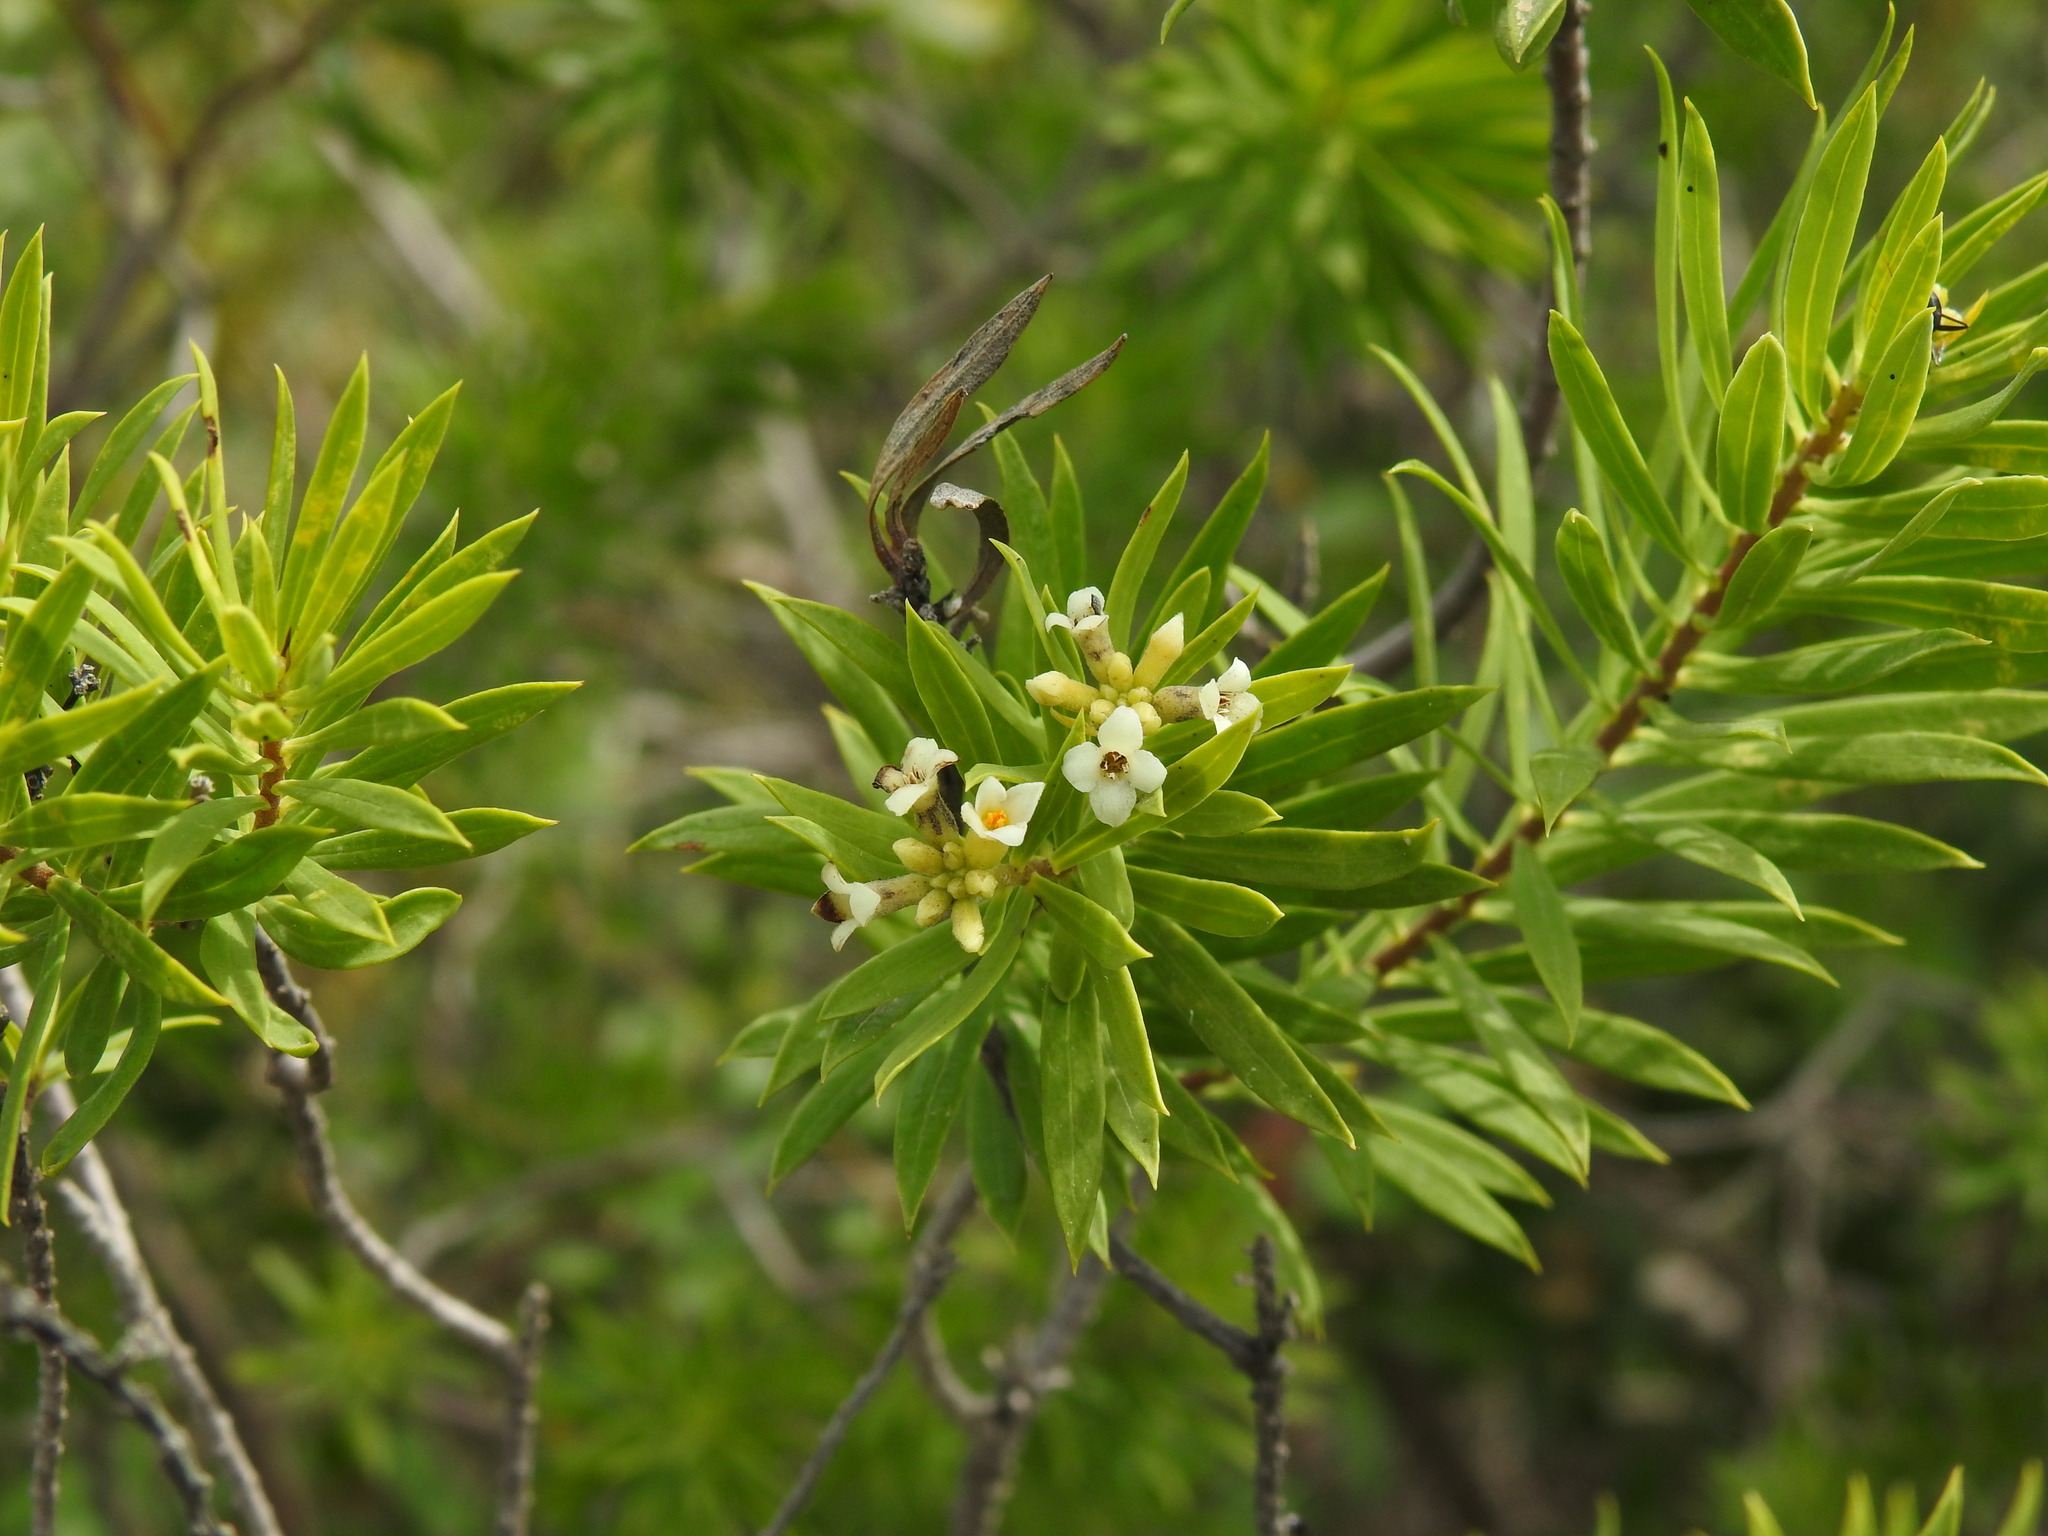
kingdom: Plantae
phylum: Tracheophyta
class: Magnoliopsida
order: Malvales
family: Thymelaeaceae
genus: Daphne
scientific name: Daphne gnidium
